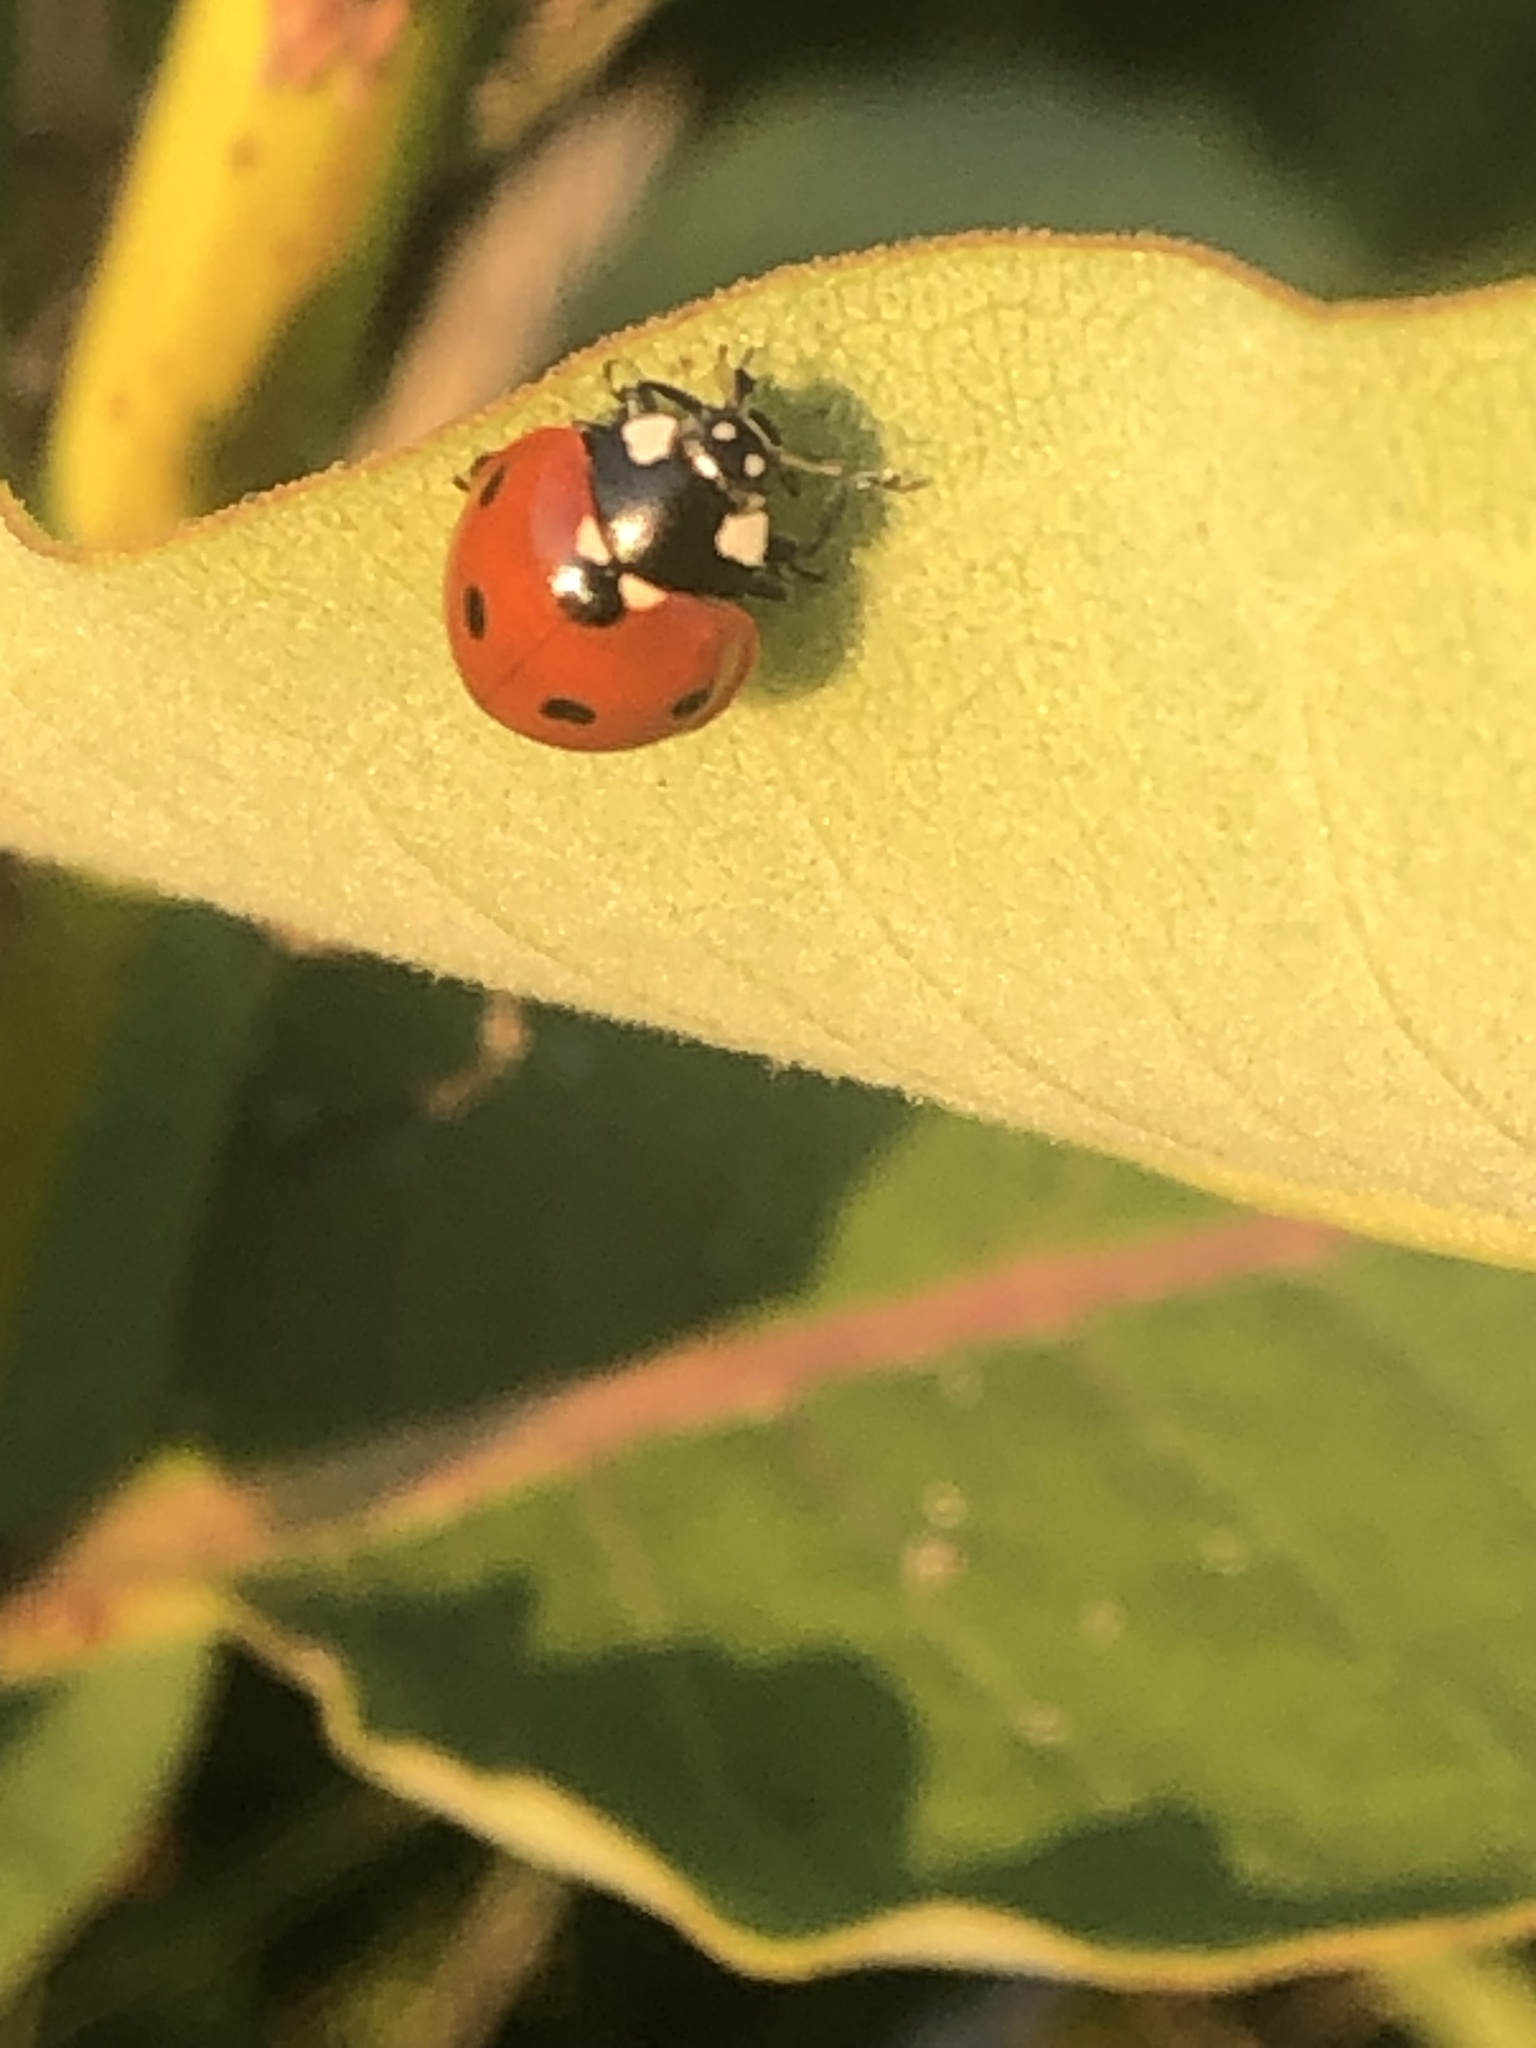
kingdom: Animalia
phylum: Arthropoda
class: Insecta
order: Coleoptera
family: Coccinellidae
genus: Coccinella
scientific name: Coccinella septempunctata
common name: Sevenspotted lady beetle
